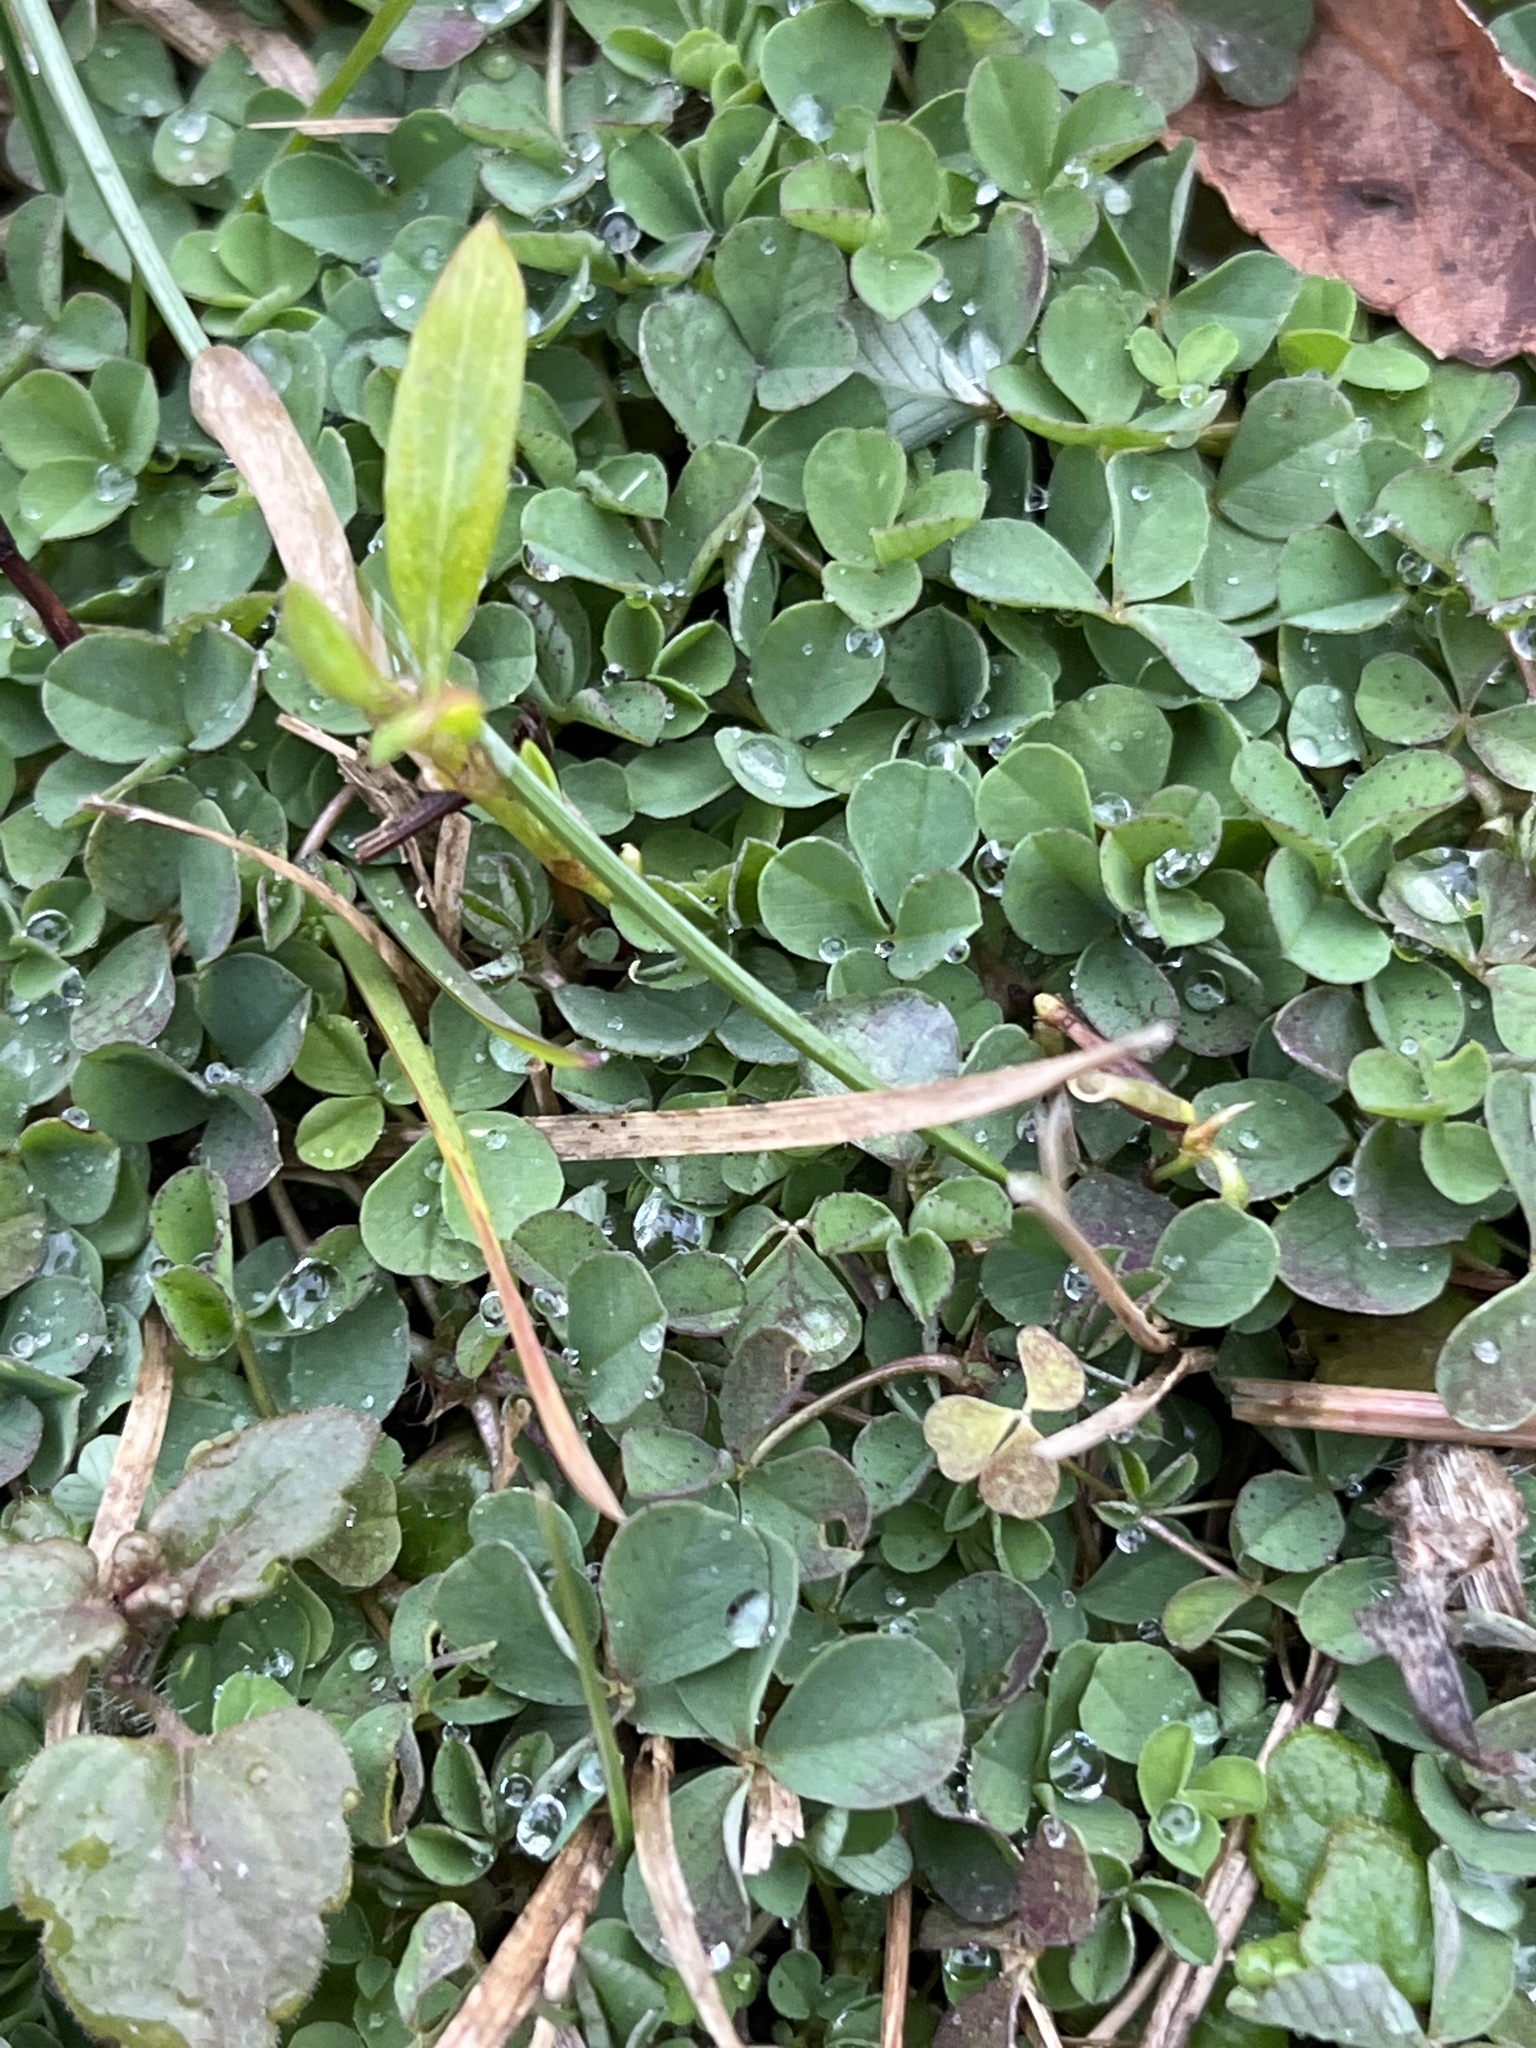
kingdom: Plantae
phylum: Tracheophyta
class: Magnoliopsida
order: Fabales
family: Fabaceae
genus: Medicago
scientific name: Medicago lupulina
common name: Black medick
